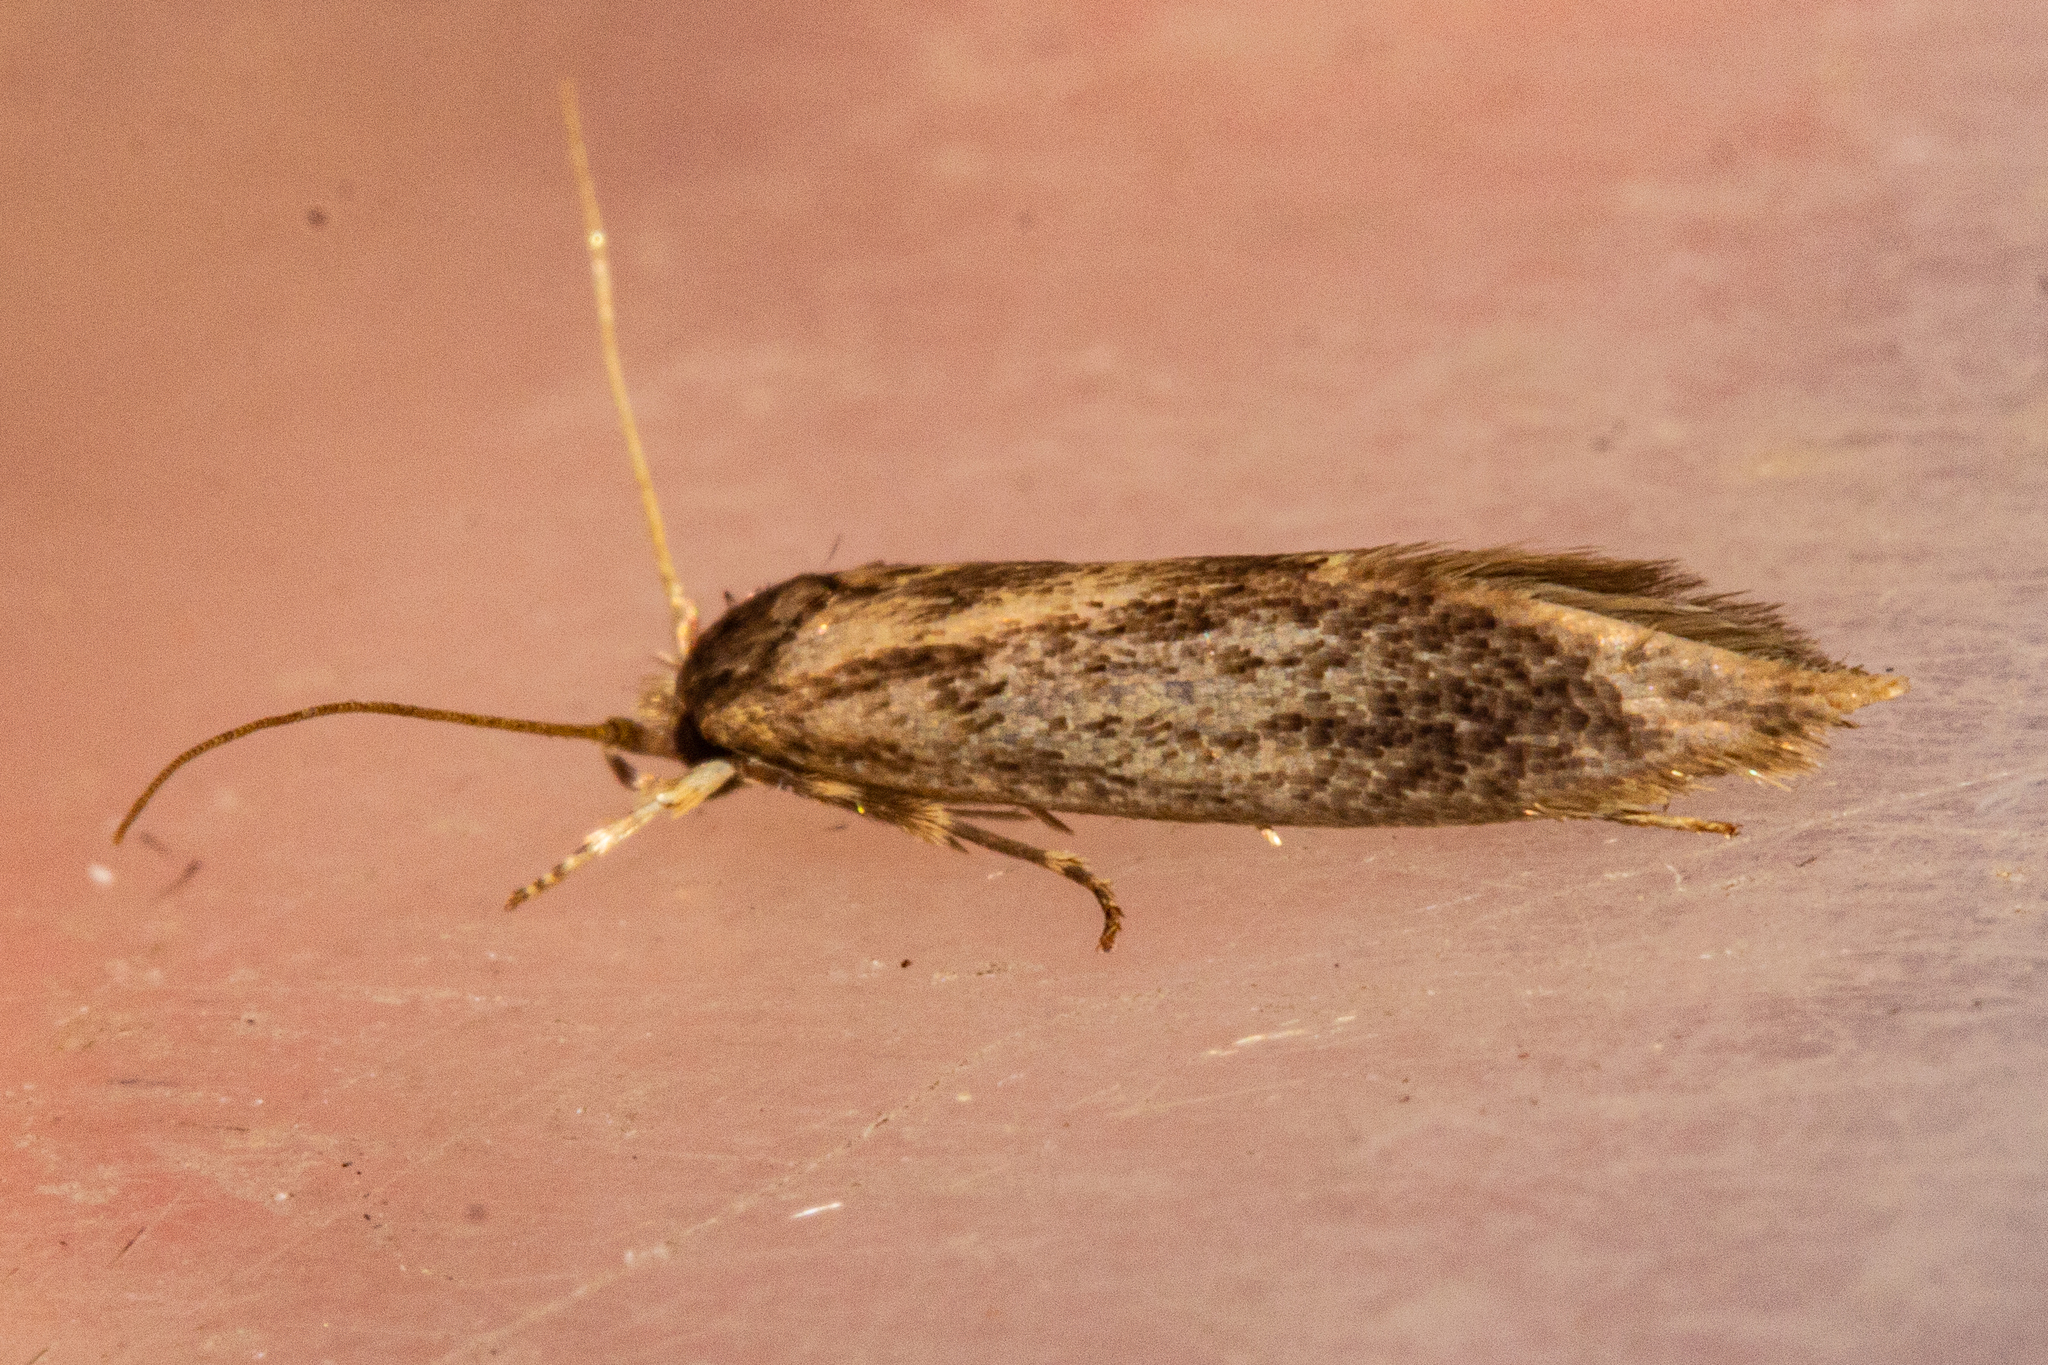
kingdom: Animalia
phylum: Arthropoda
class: Insecta
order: Lepidoptera
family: Tineidae
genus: Opogona
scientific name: Opogona omoscopa
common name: Moth
